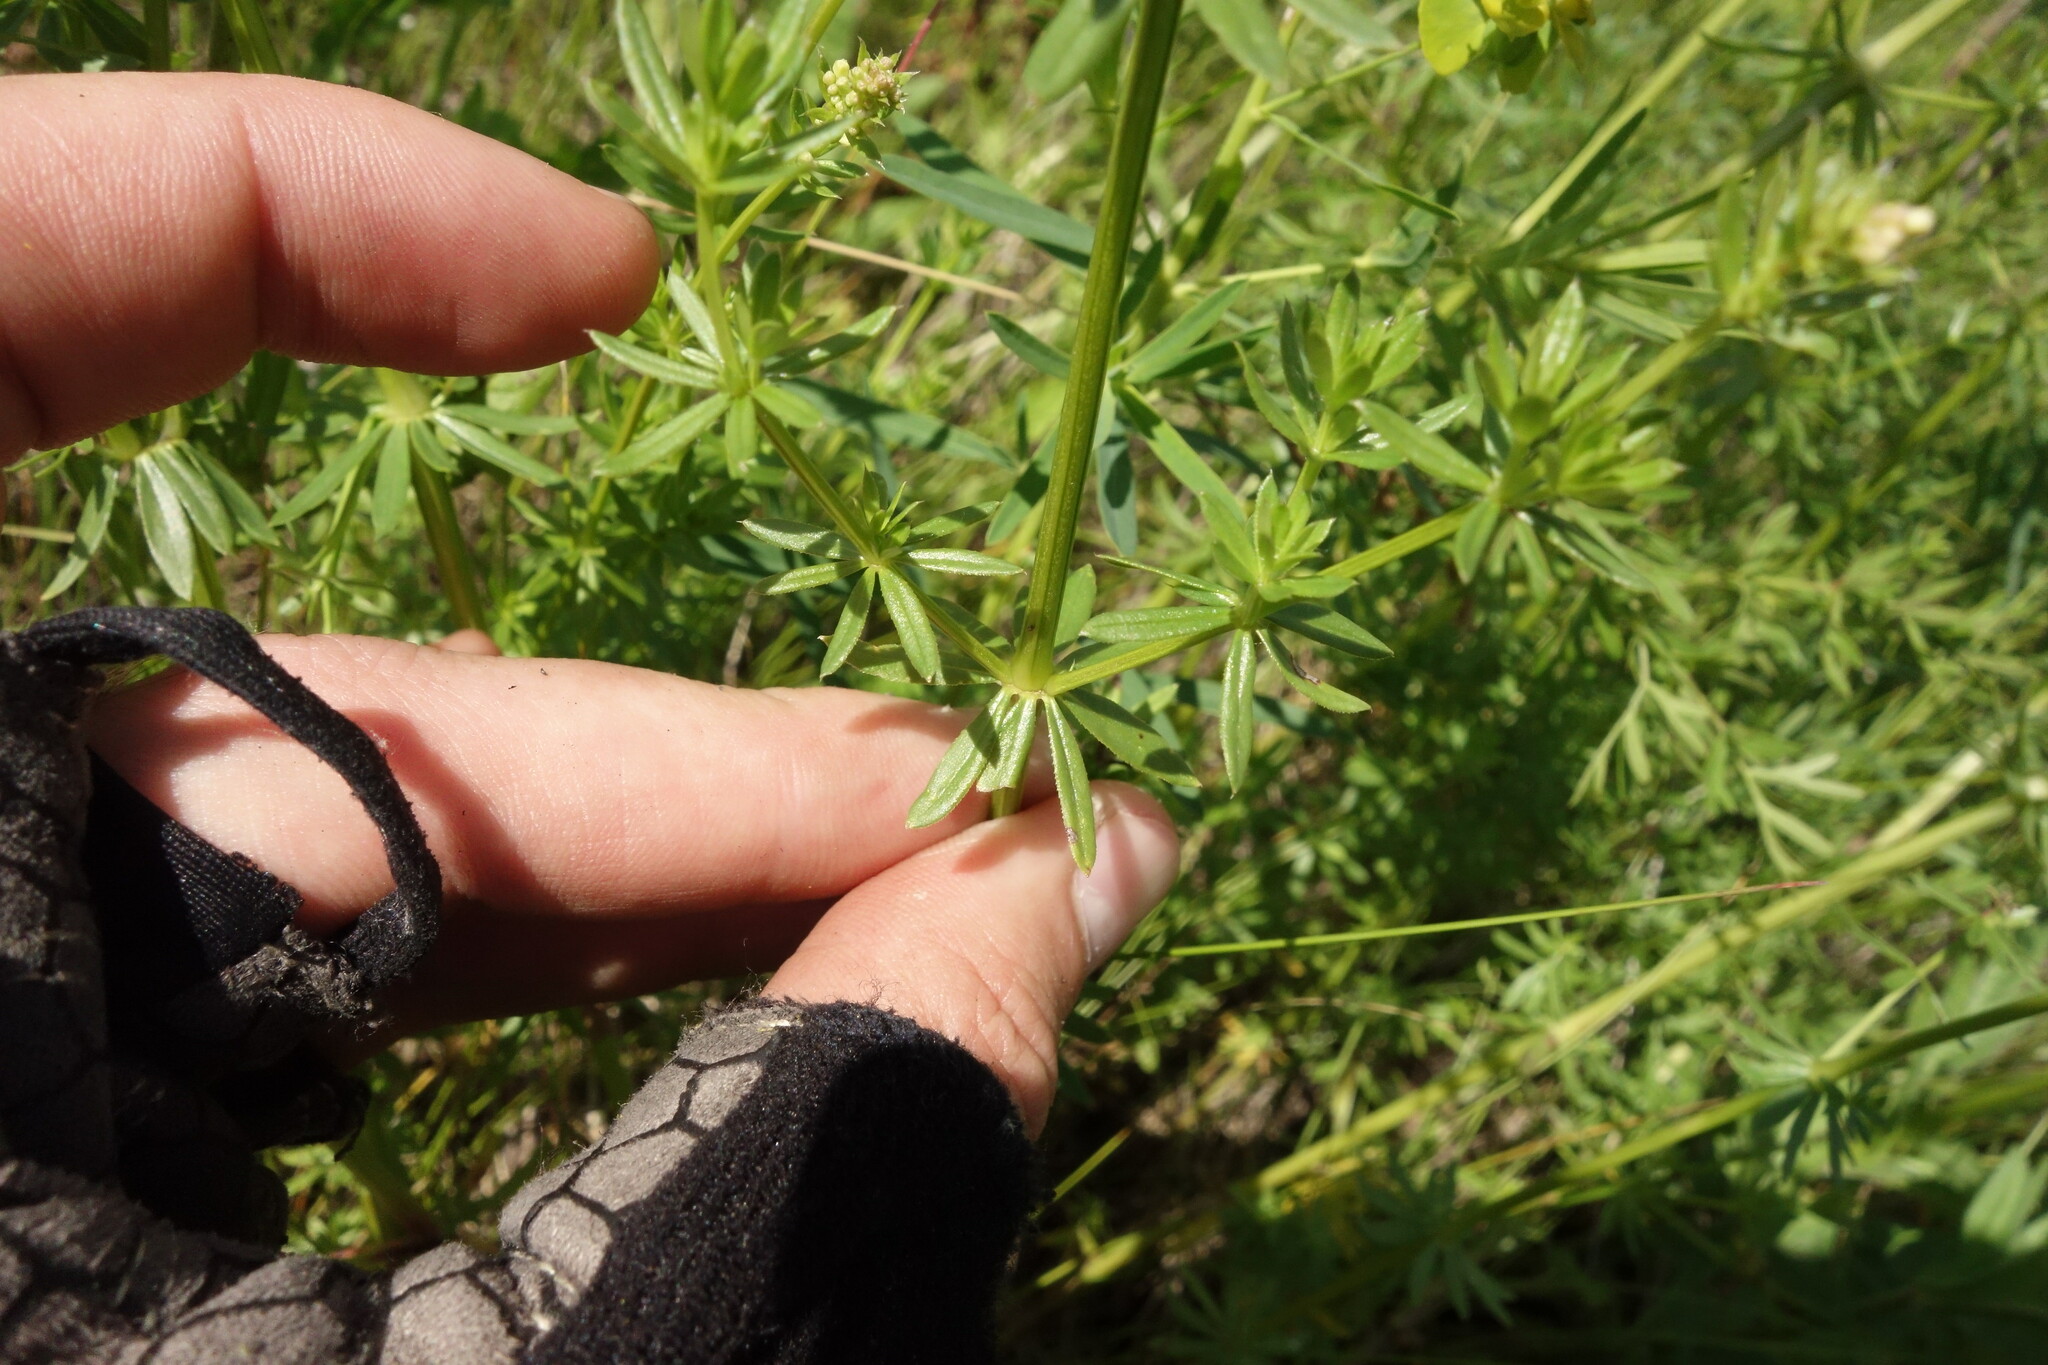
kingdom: Plantae
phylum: Tracheophyta
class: Magnoliopsida
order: Gentianales
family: Rubiaceae
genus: Galium
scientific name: Galium mollugo
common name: Hedge bedstraw
